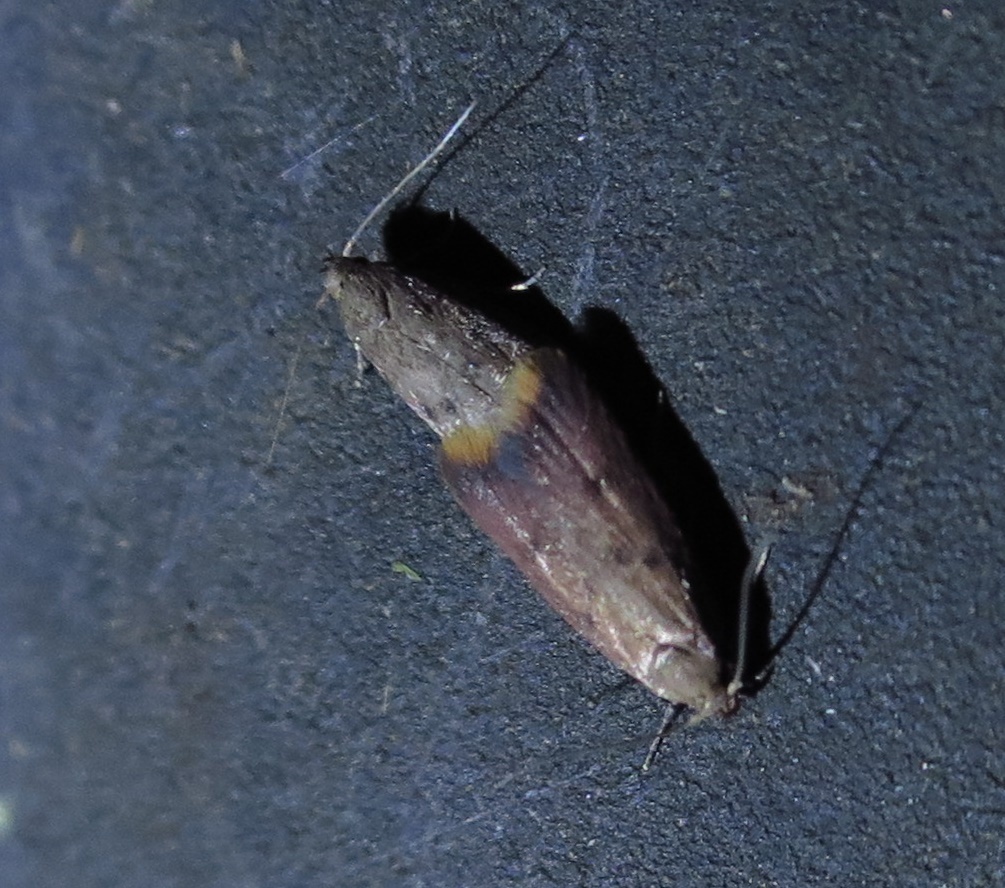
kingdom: Animalia
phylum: Arthropoda
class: Insecta
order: Lepidoptera
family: Oecophoridae
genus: Tachystola
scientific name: Tachystola acroxantha
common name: Ruddy streak
